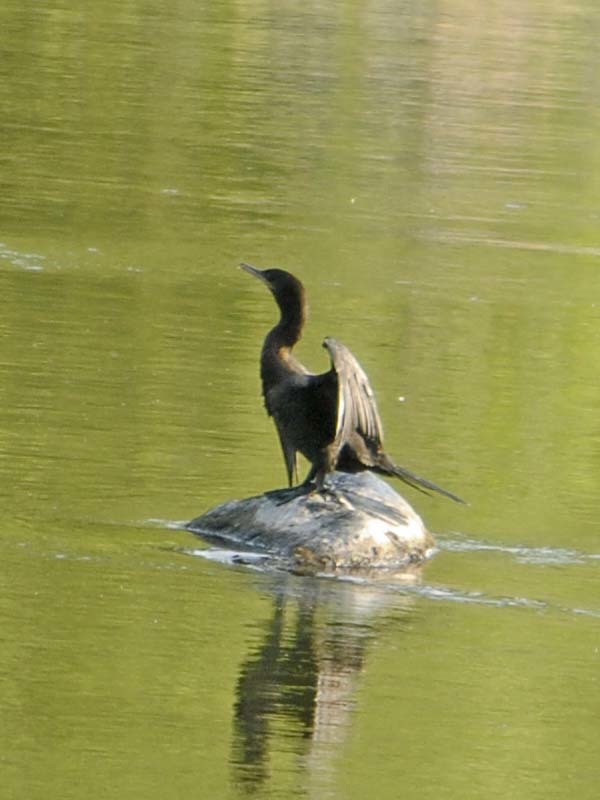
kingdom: Animalia
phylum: Chordata
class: Aves
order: Suliformes
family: Phalacrocoracidae
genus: Phalacrocorax
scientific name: Phalacrocorax brasilianus
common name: Neotropic cormorant
